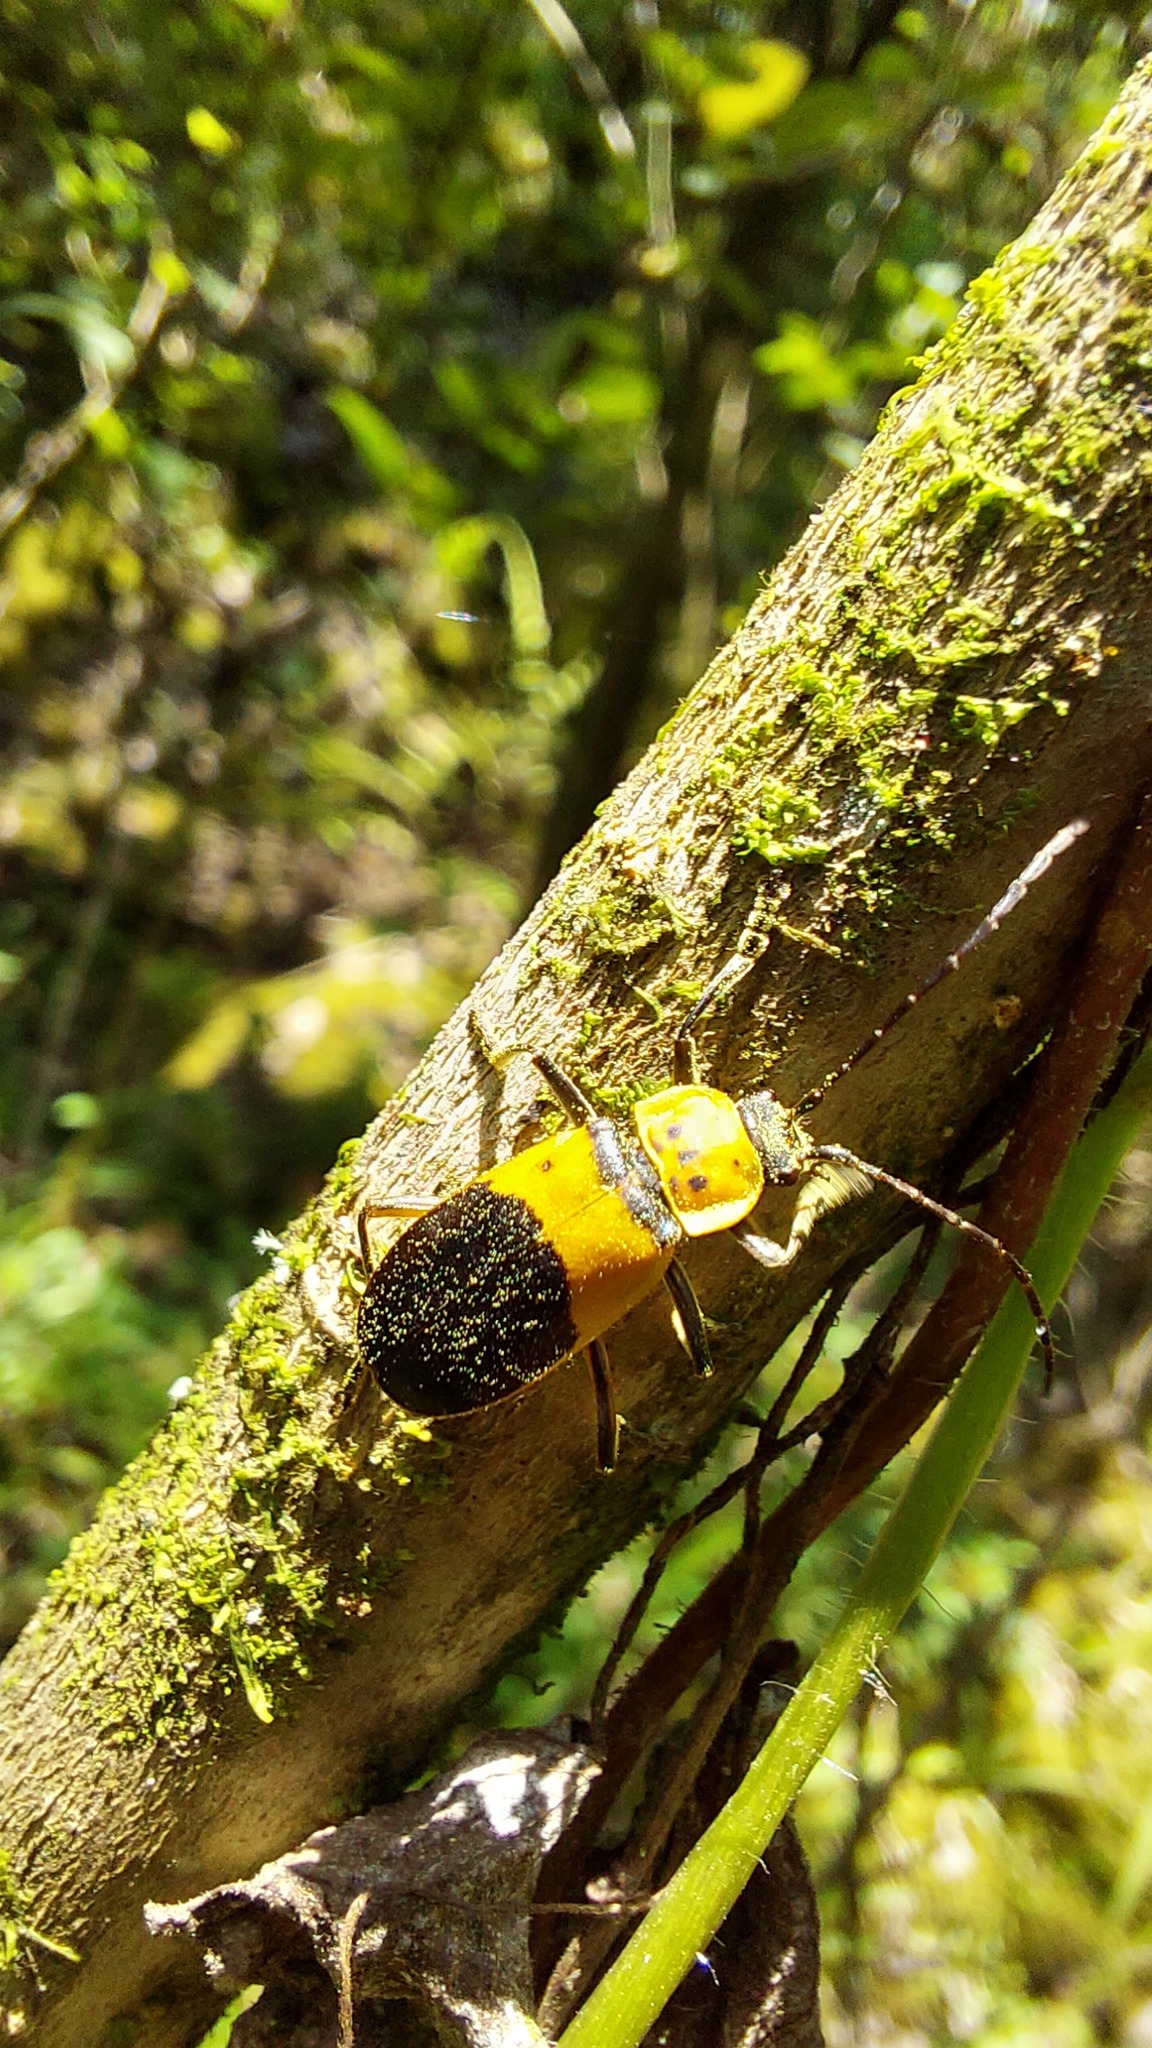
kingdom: Animalia
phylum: Arthropoda
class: Insecta
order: Coleoptera
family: Cantharidae
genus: Chauliognathus
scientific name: Chauliognathus
